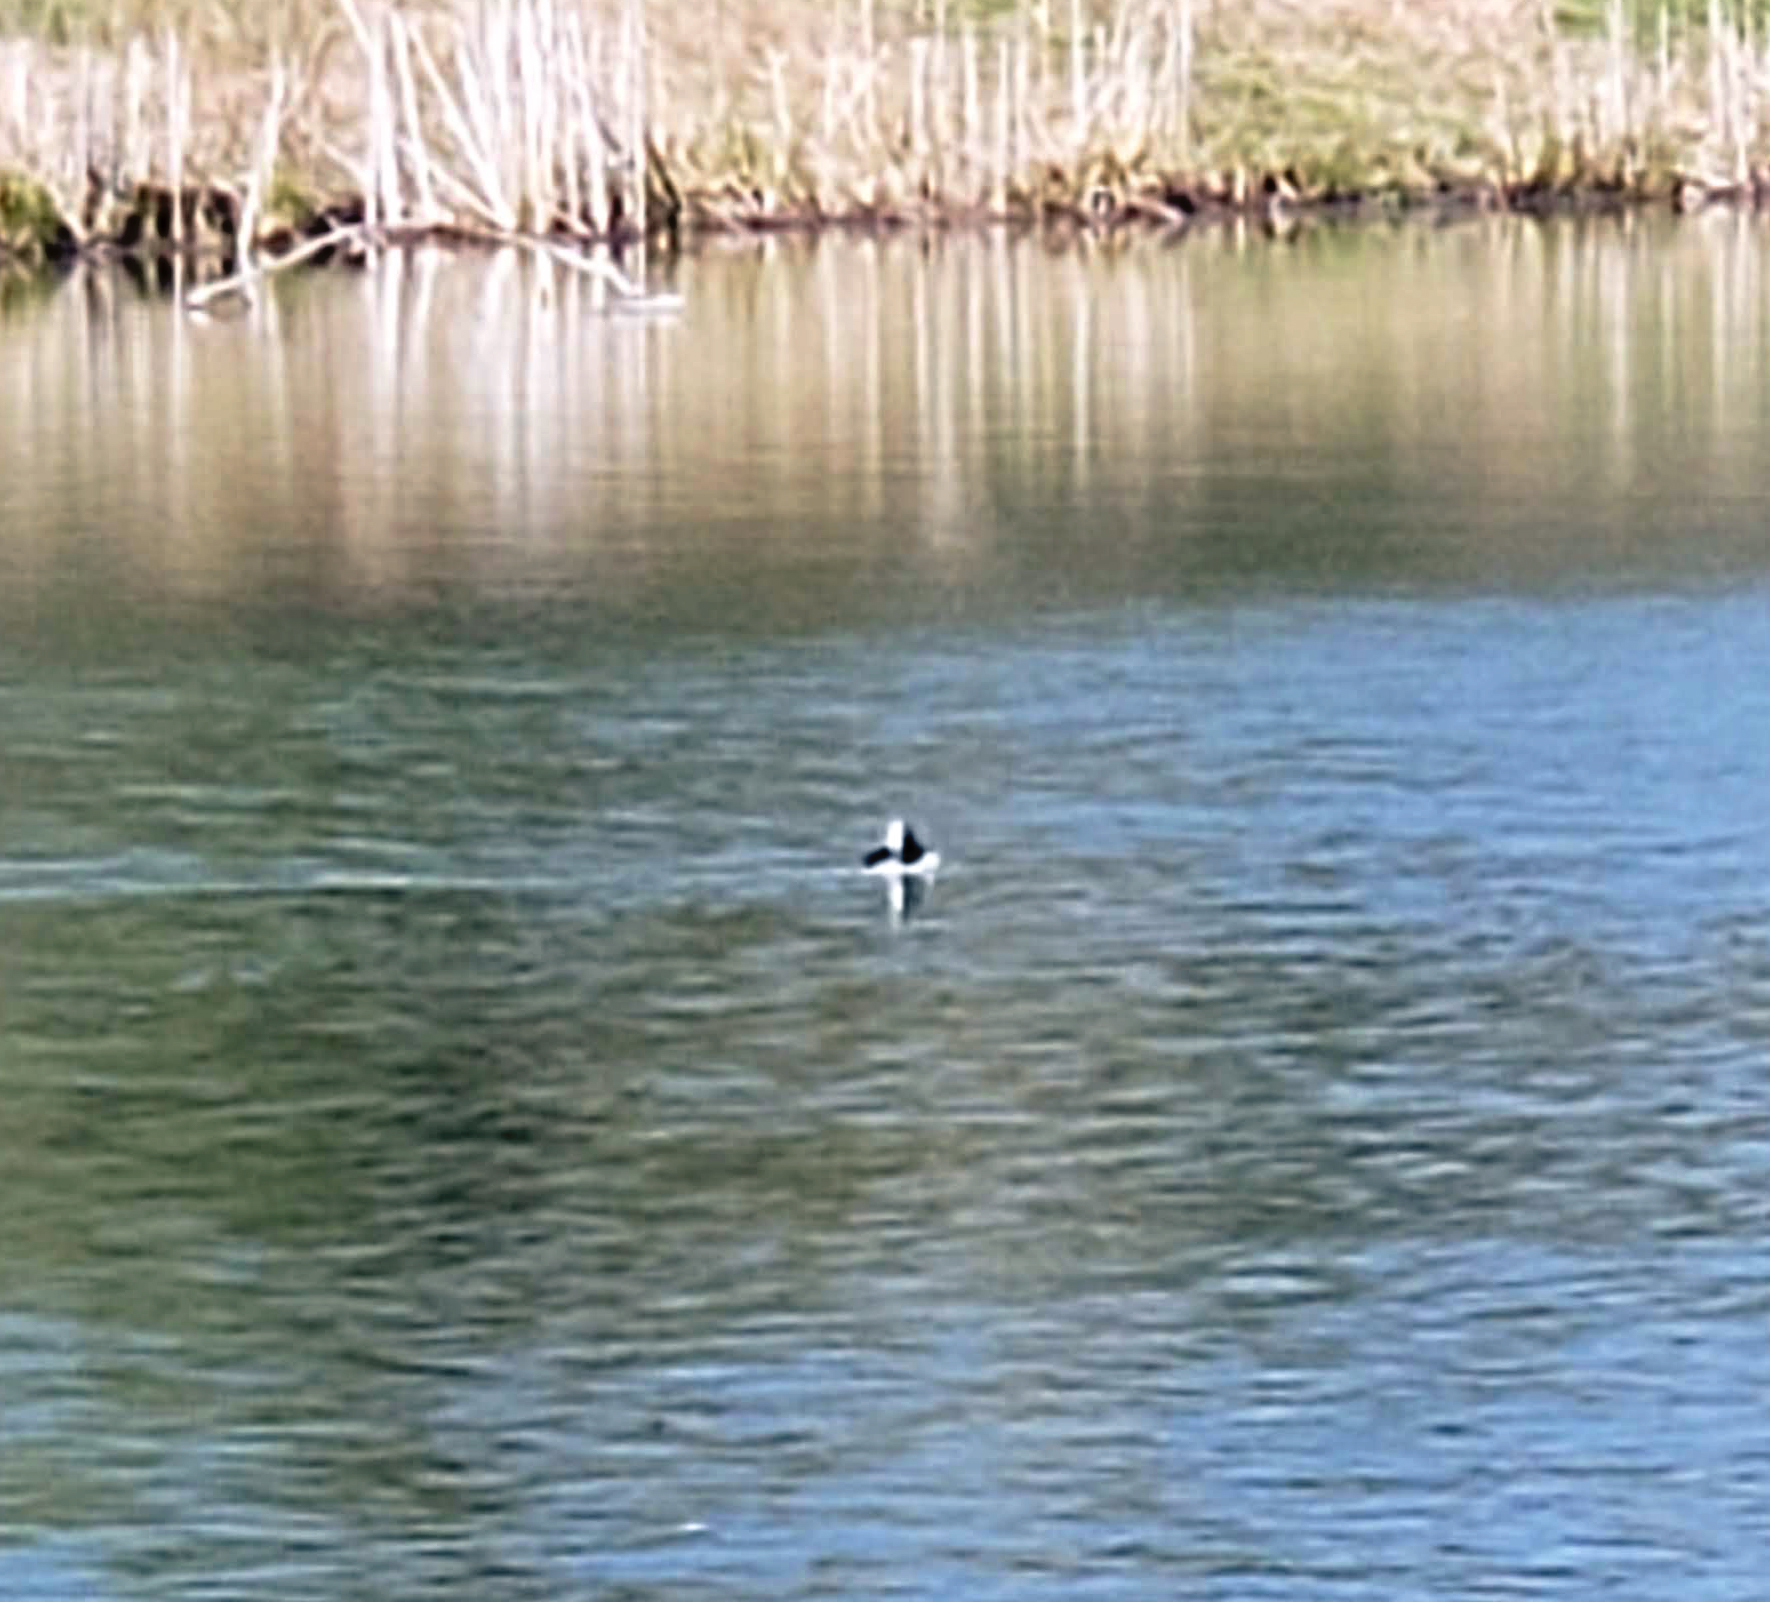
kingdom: Animalia
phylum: Chordata
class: Aves
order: Anseriformes
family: Anatidae
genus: Bucephala
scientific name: Bucephala albeola
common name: Bufflehead
